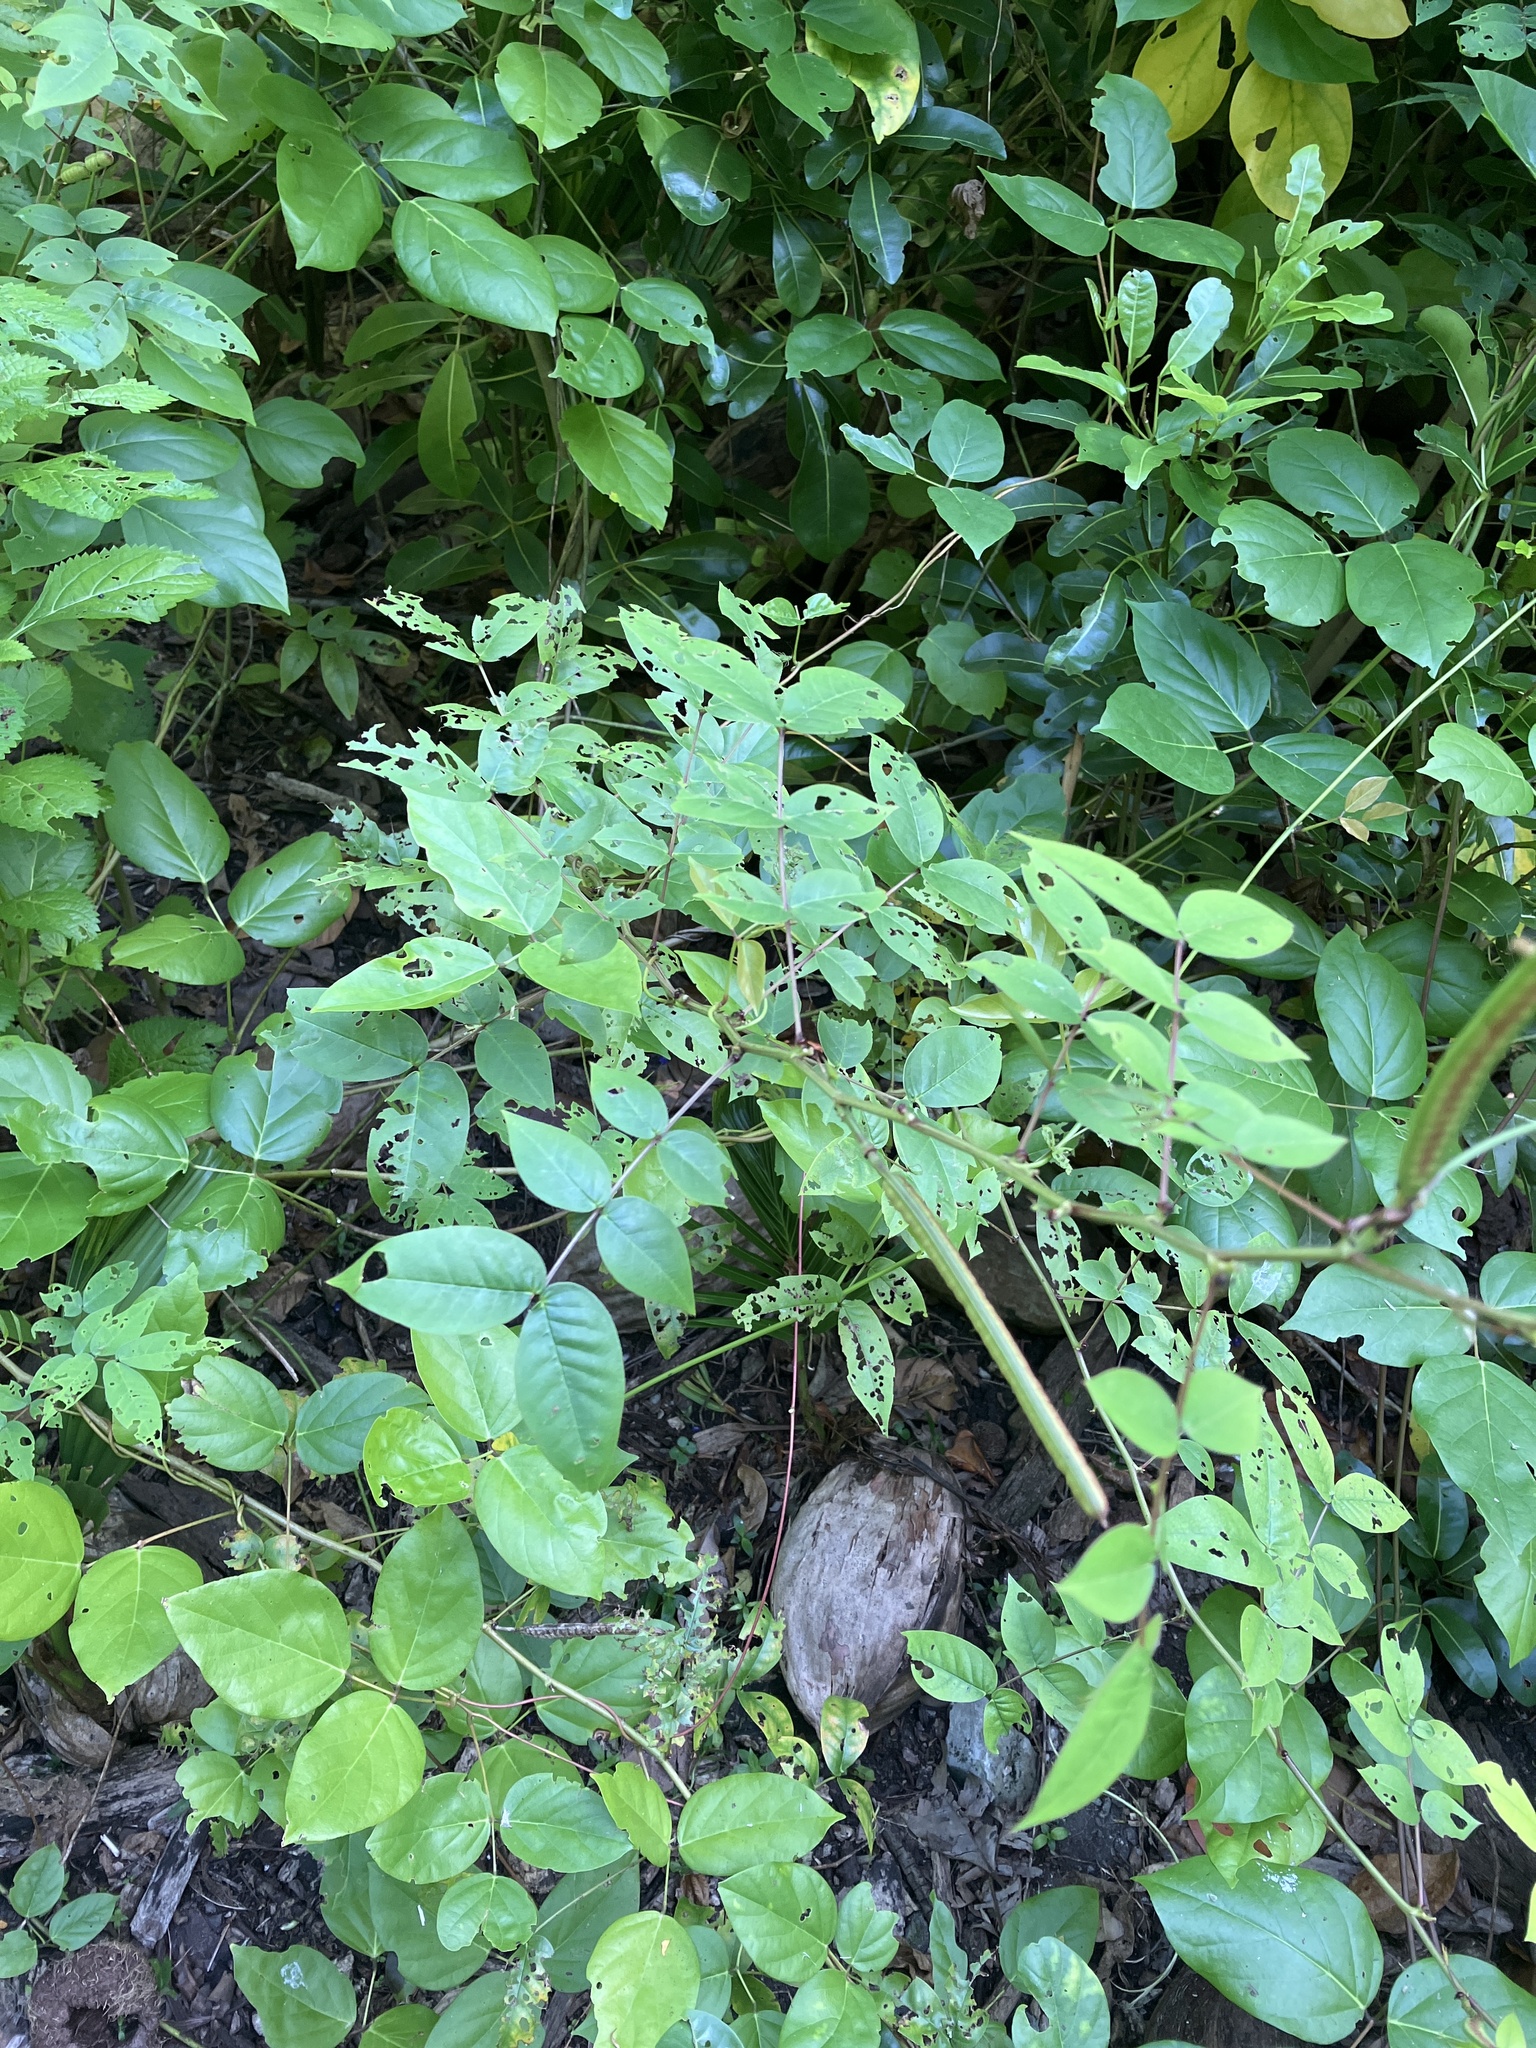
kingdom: Plantae
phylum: Tracheophyta
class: Magnoliopsida
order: Fabales
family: Fabaceae
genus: Senna
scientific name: Senna occidentalis
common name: Septicweed
